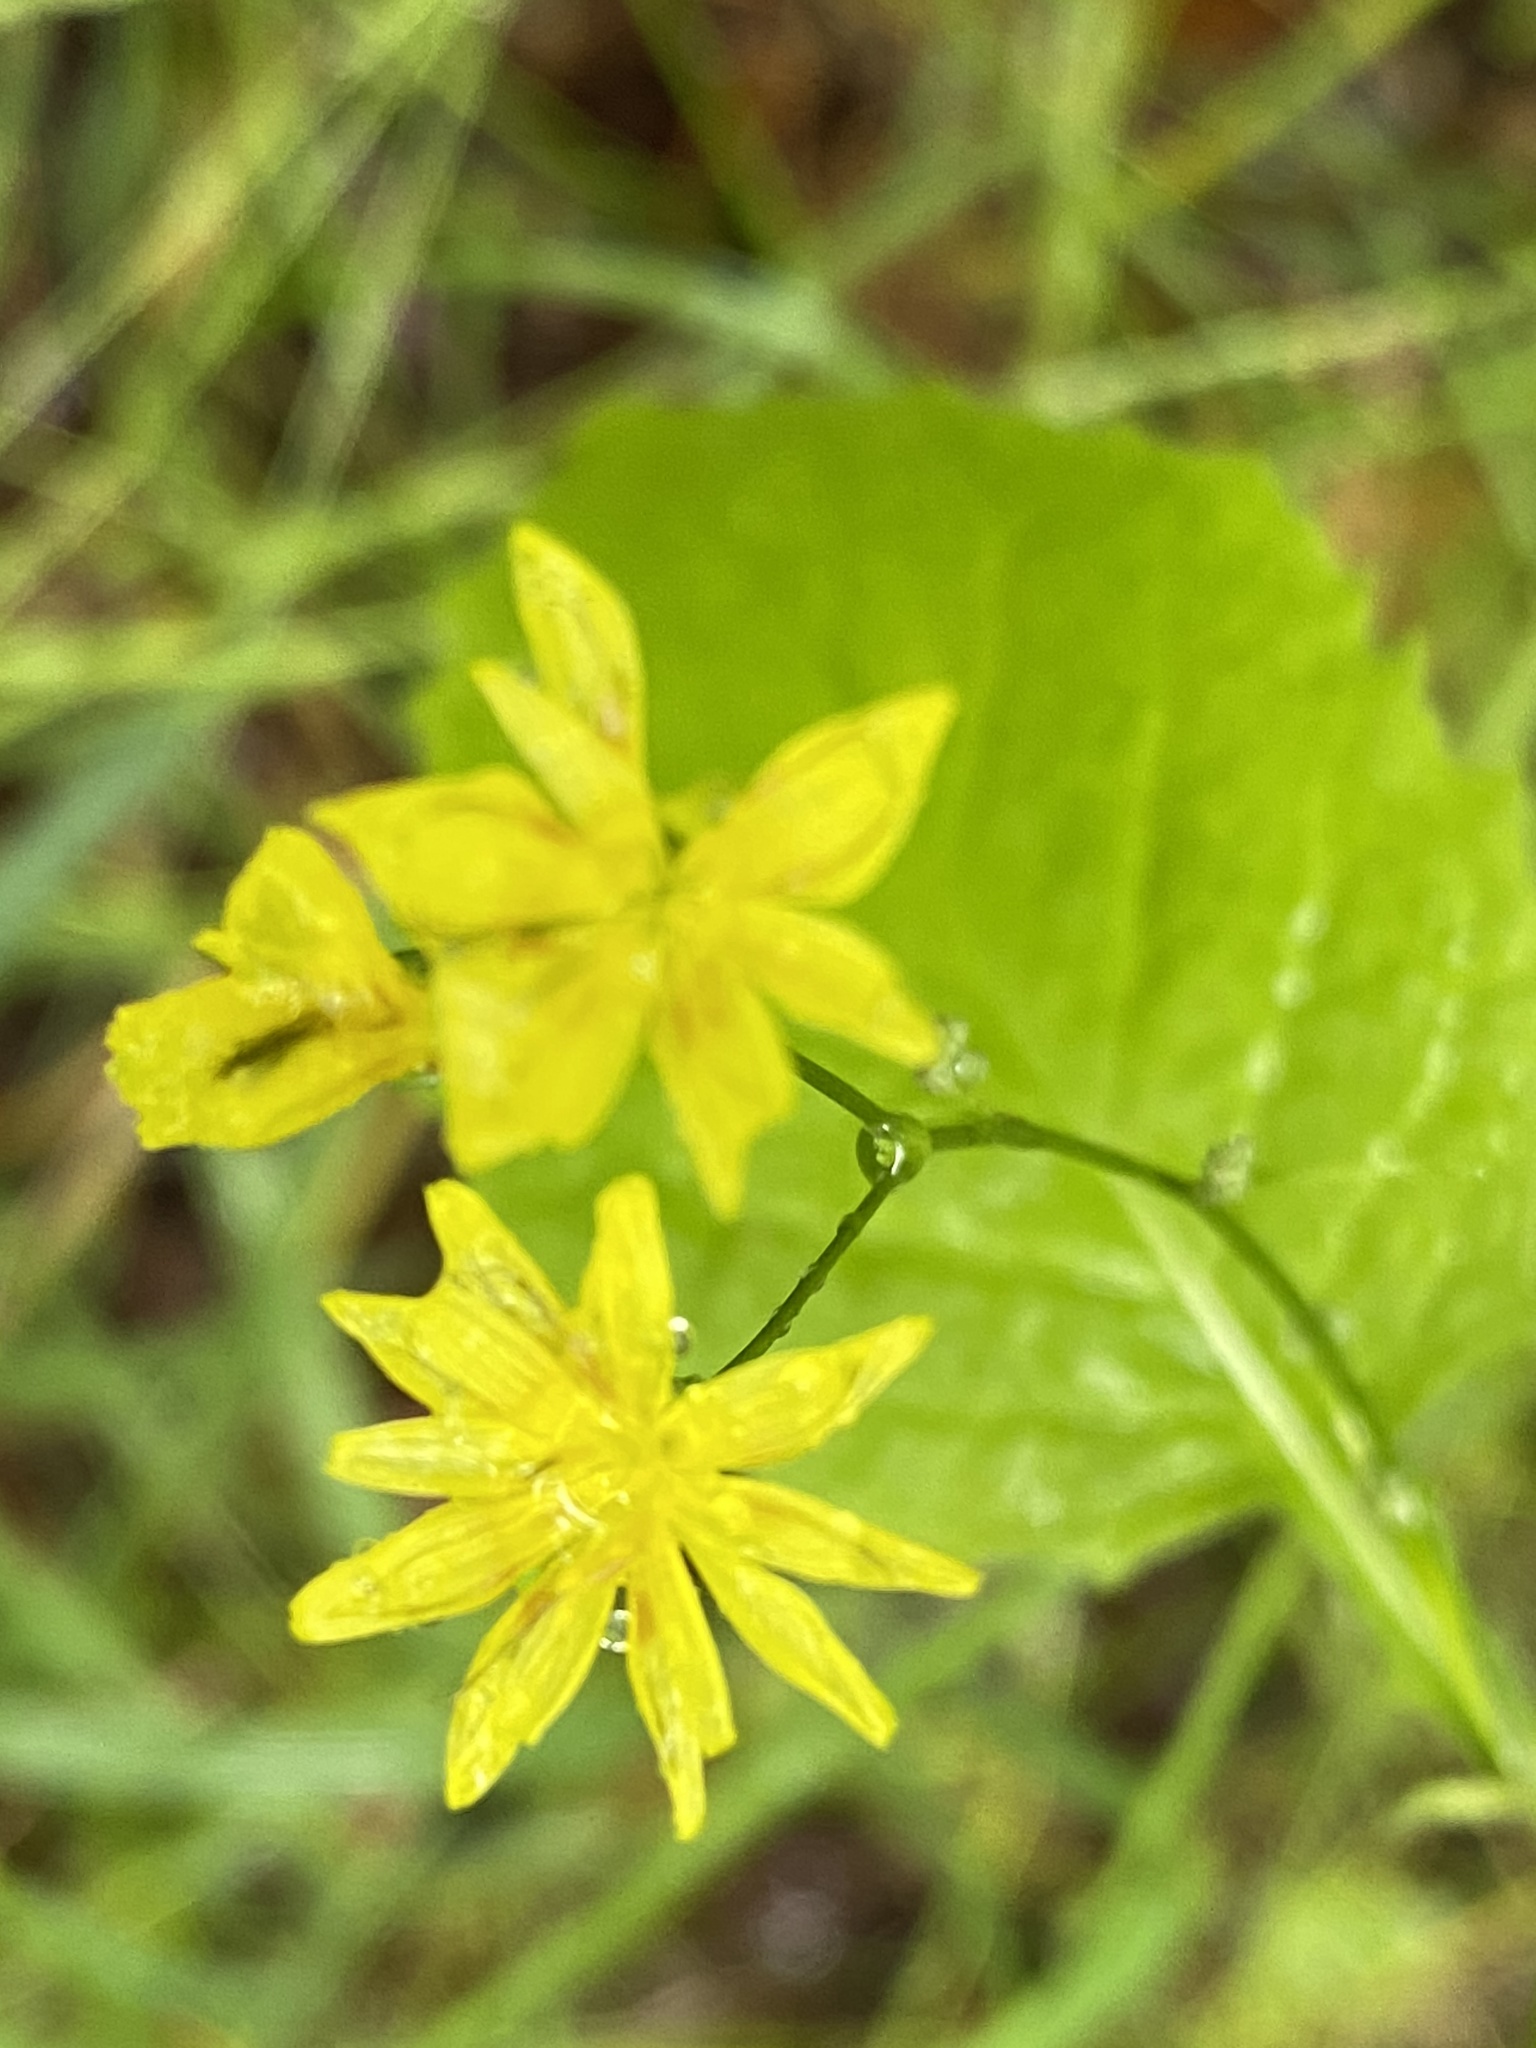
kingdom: Plantae
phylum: Tracheophyta
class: Magnoliopsida
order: Asterales
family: Asteraceae
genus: Lapsana
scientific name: Lapsana communis
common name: Nipplewort
